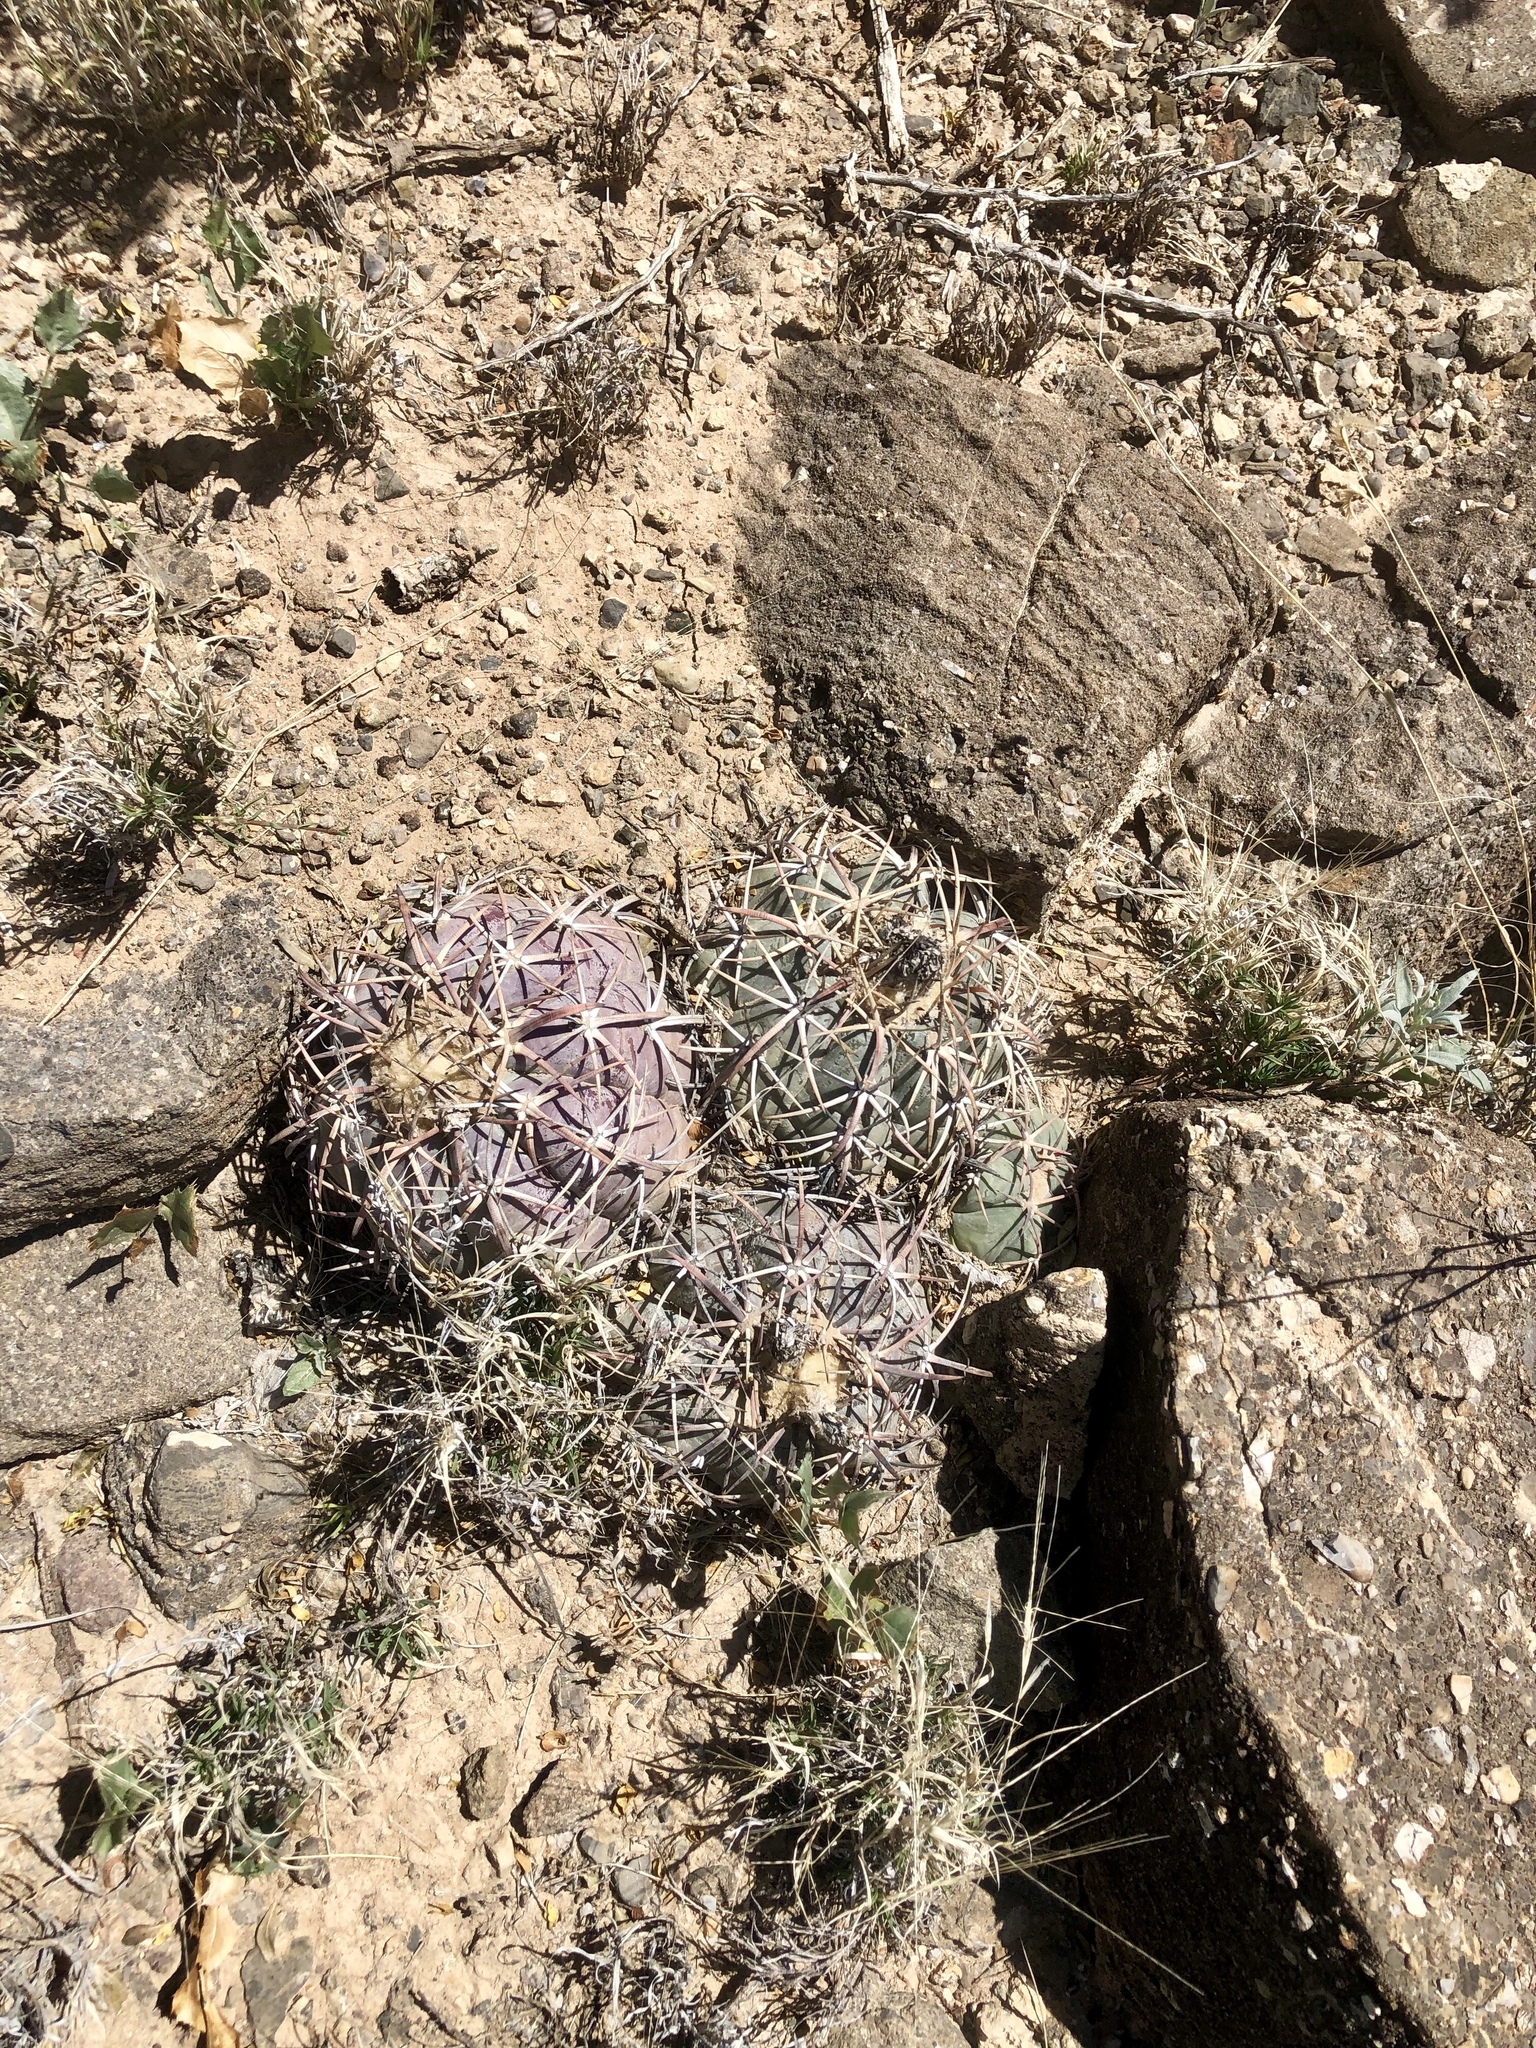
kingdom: Plantae
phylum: Tracheophyta
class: Magnoliopsida
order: Caryophyllales
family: Cactaceae
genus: Echinocactus
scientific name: Echinocactus horizonthalonius
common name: Devilshead
